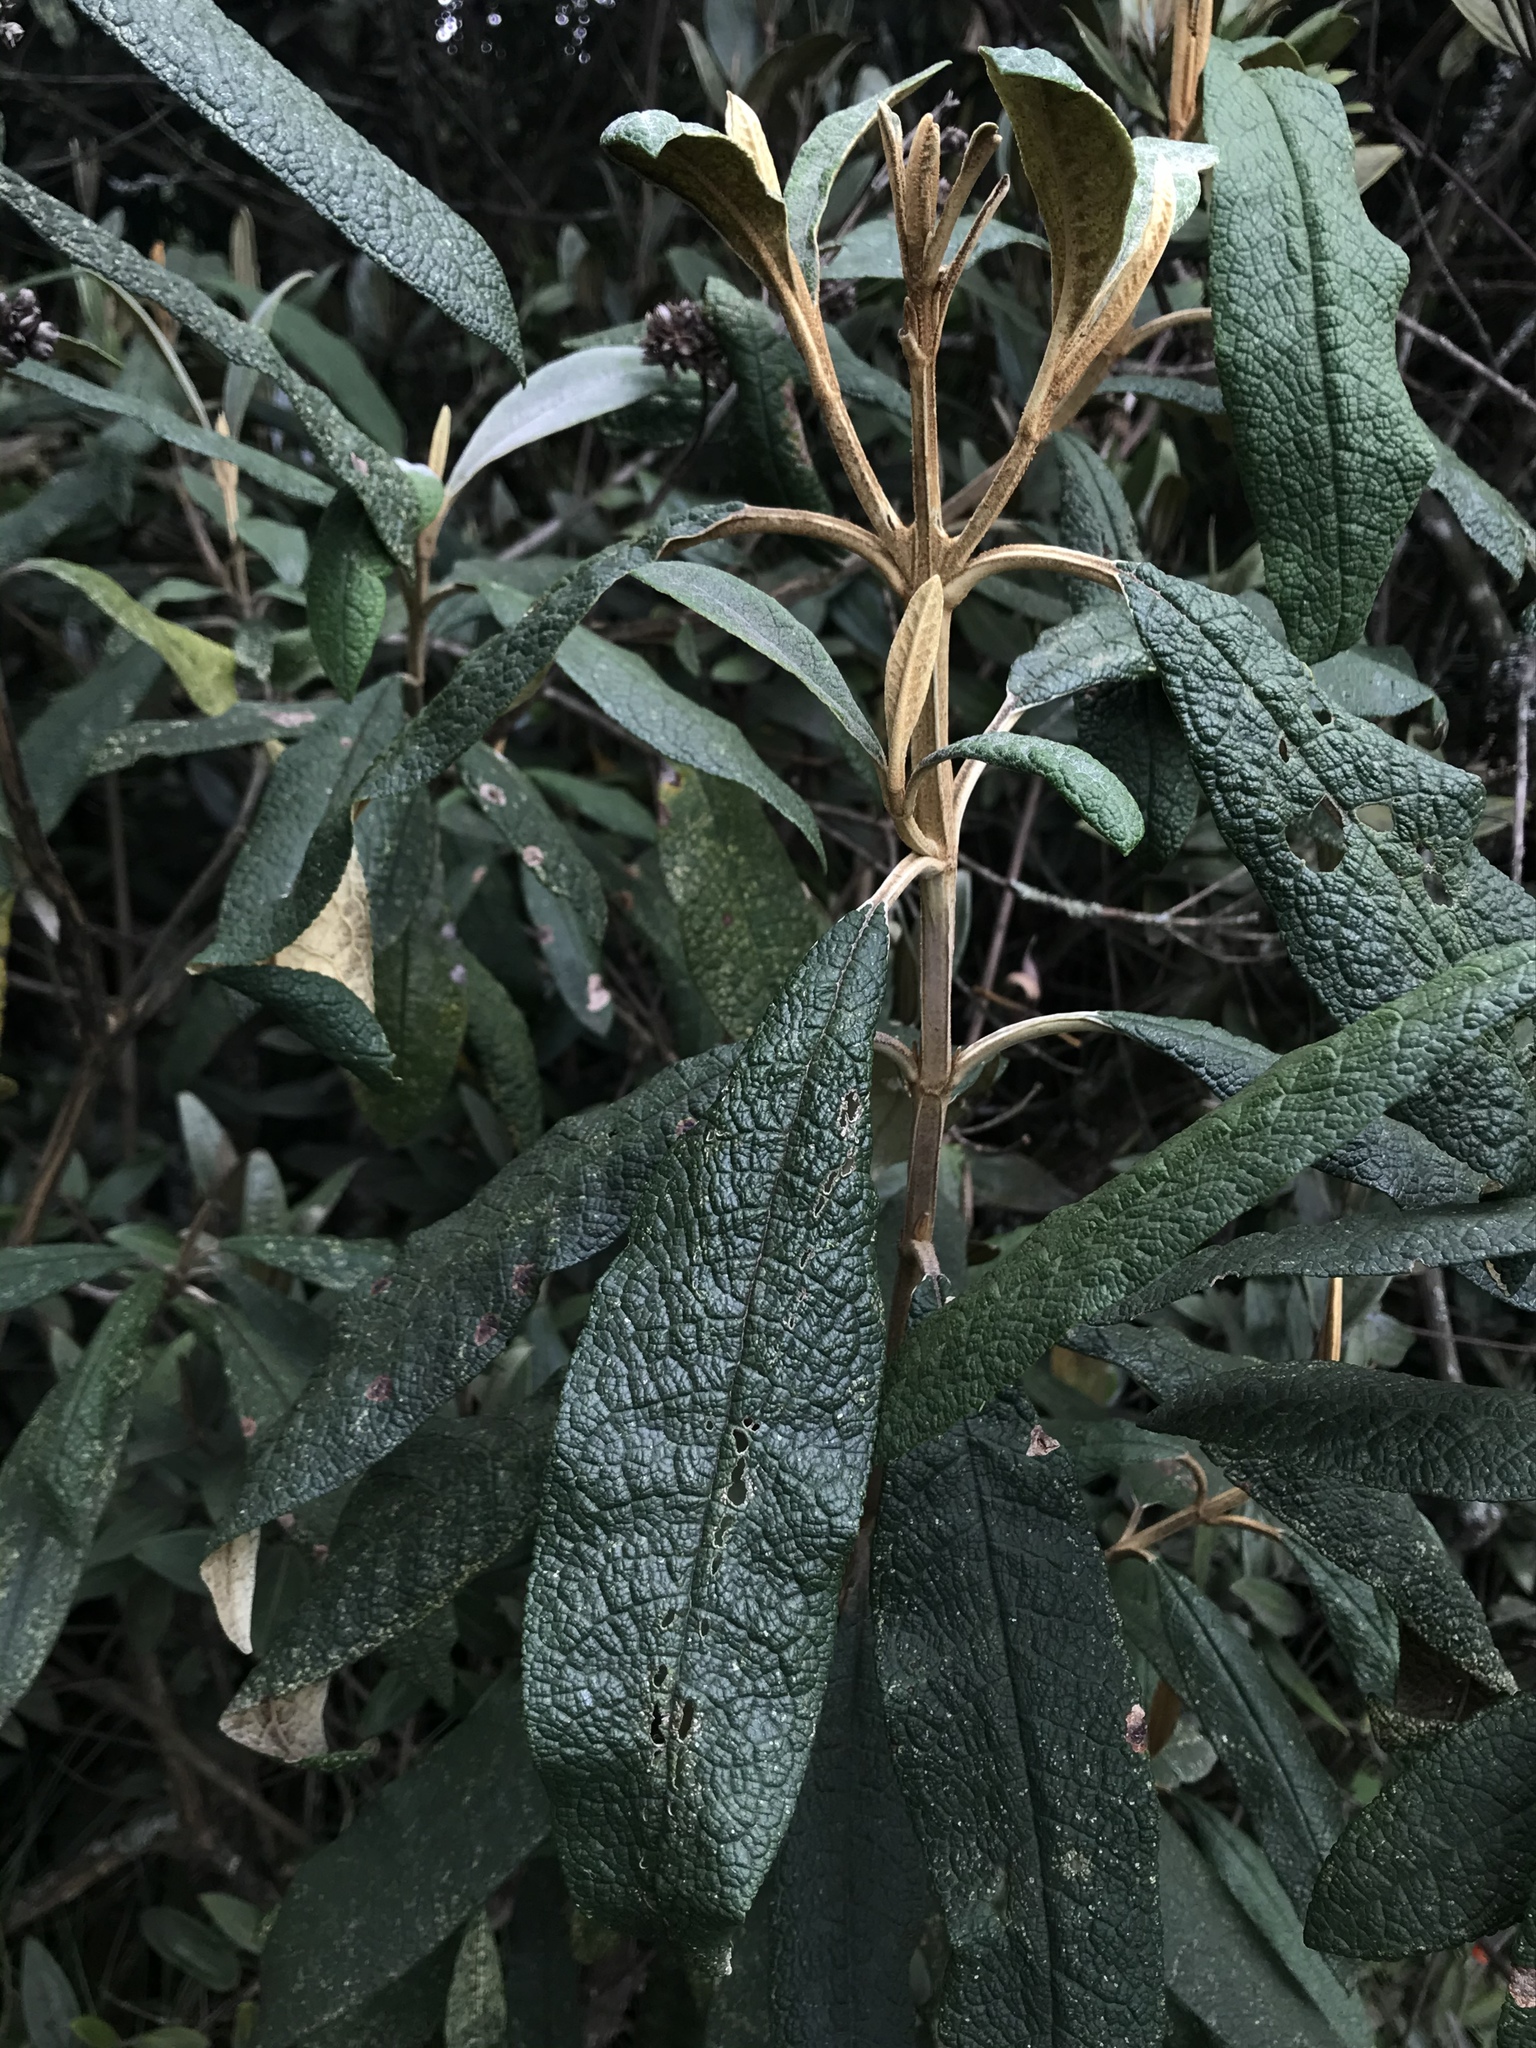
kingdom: Plantae
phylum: Tracheophyta
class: Magnoliopsida
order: Lamiales
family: Scrophulariaceae
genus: Buddleja
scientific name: Buddleja incana
